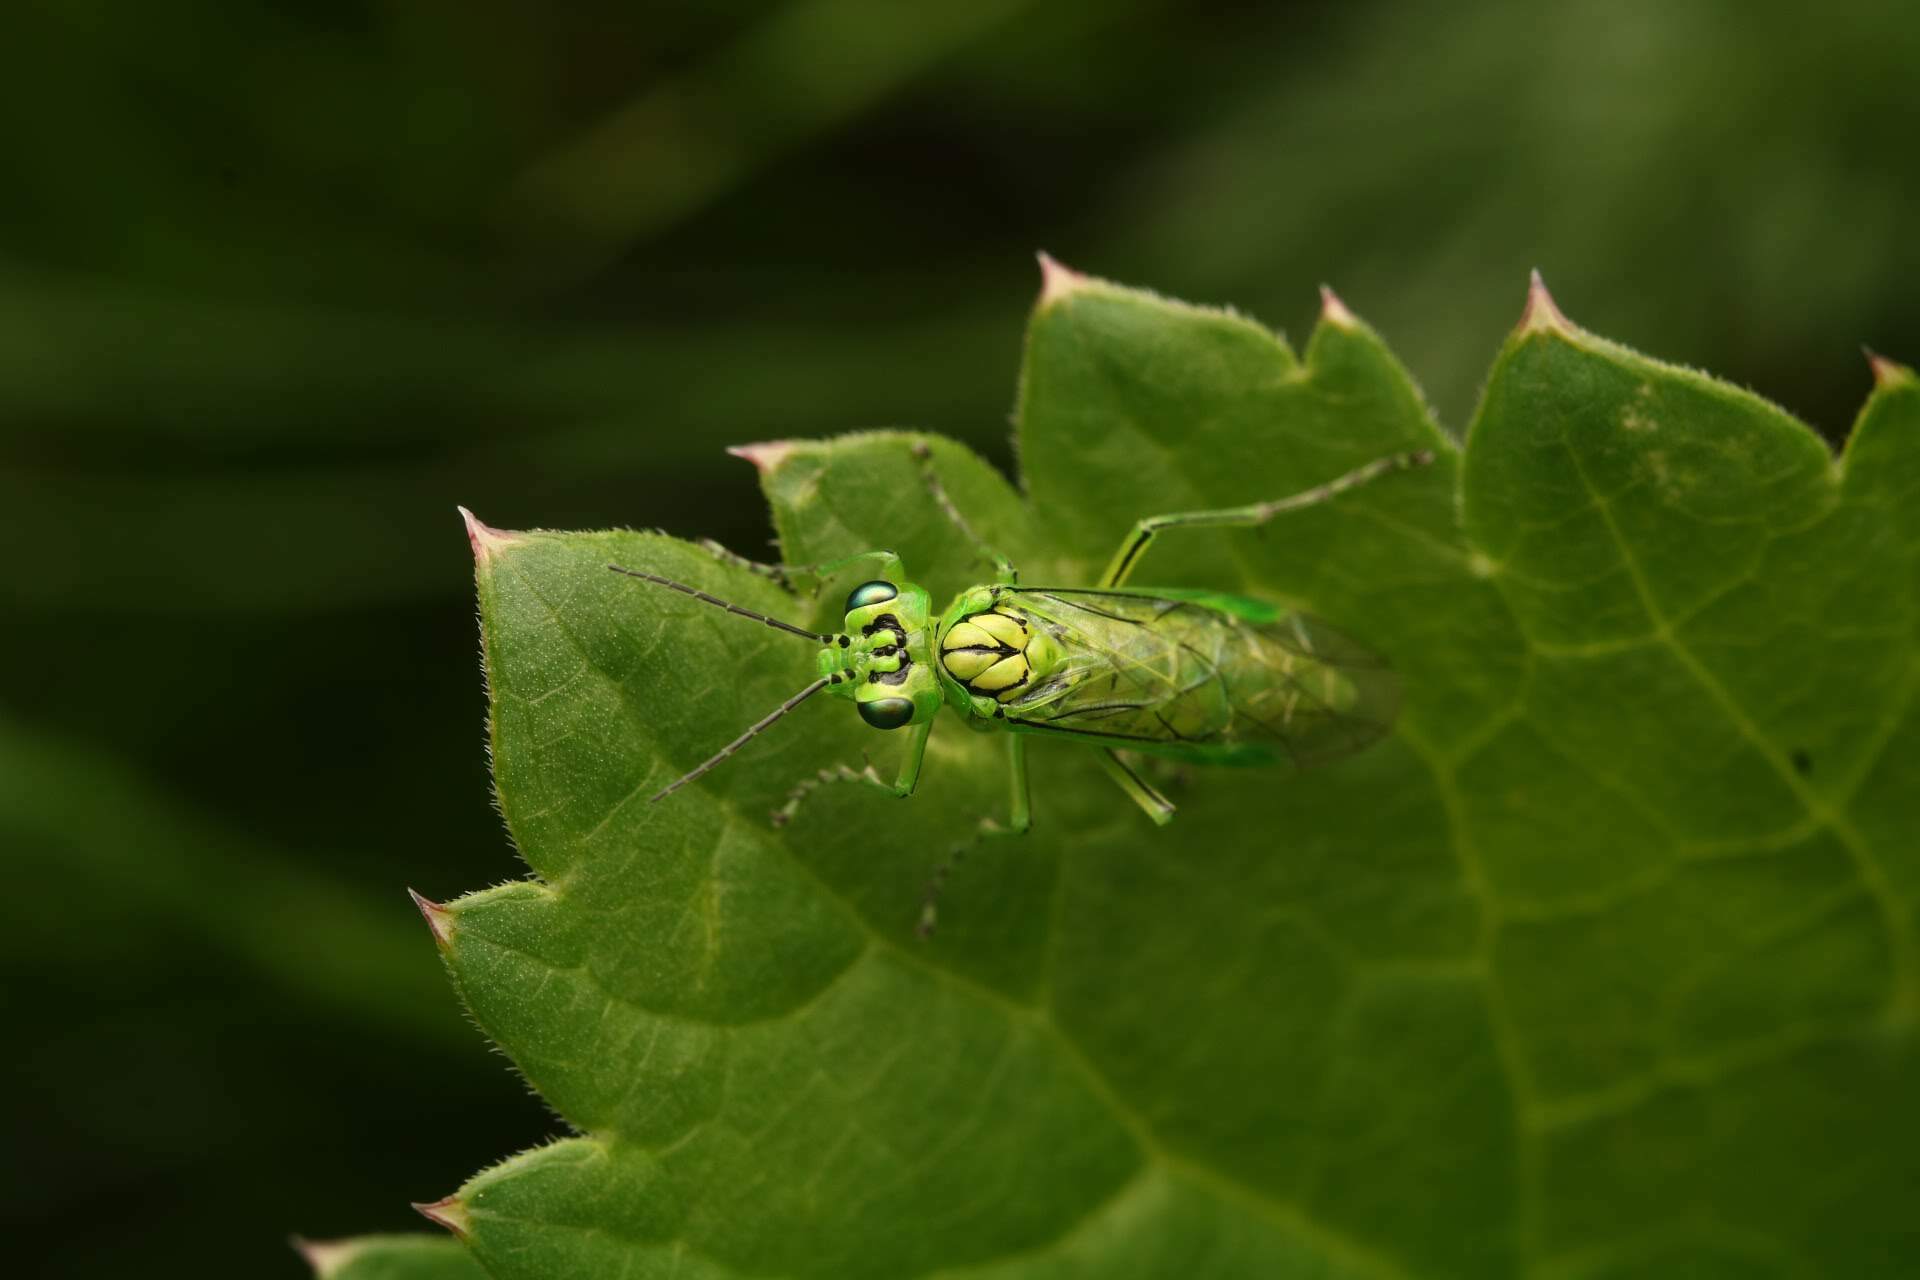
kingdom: Animalia
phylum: Arthropoda
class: Insecta
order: Hymenoptera
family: Tenthredinidae
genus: Rhogogaster
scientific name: Rhogogaster punctulata
